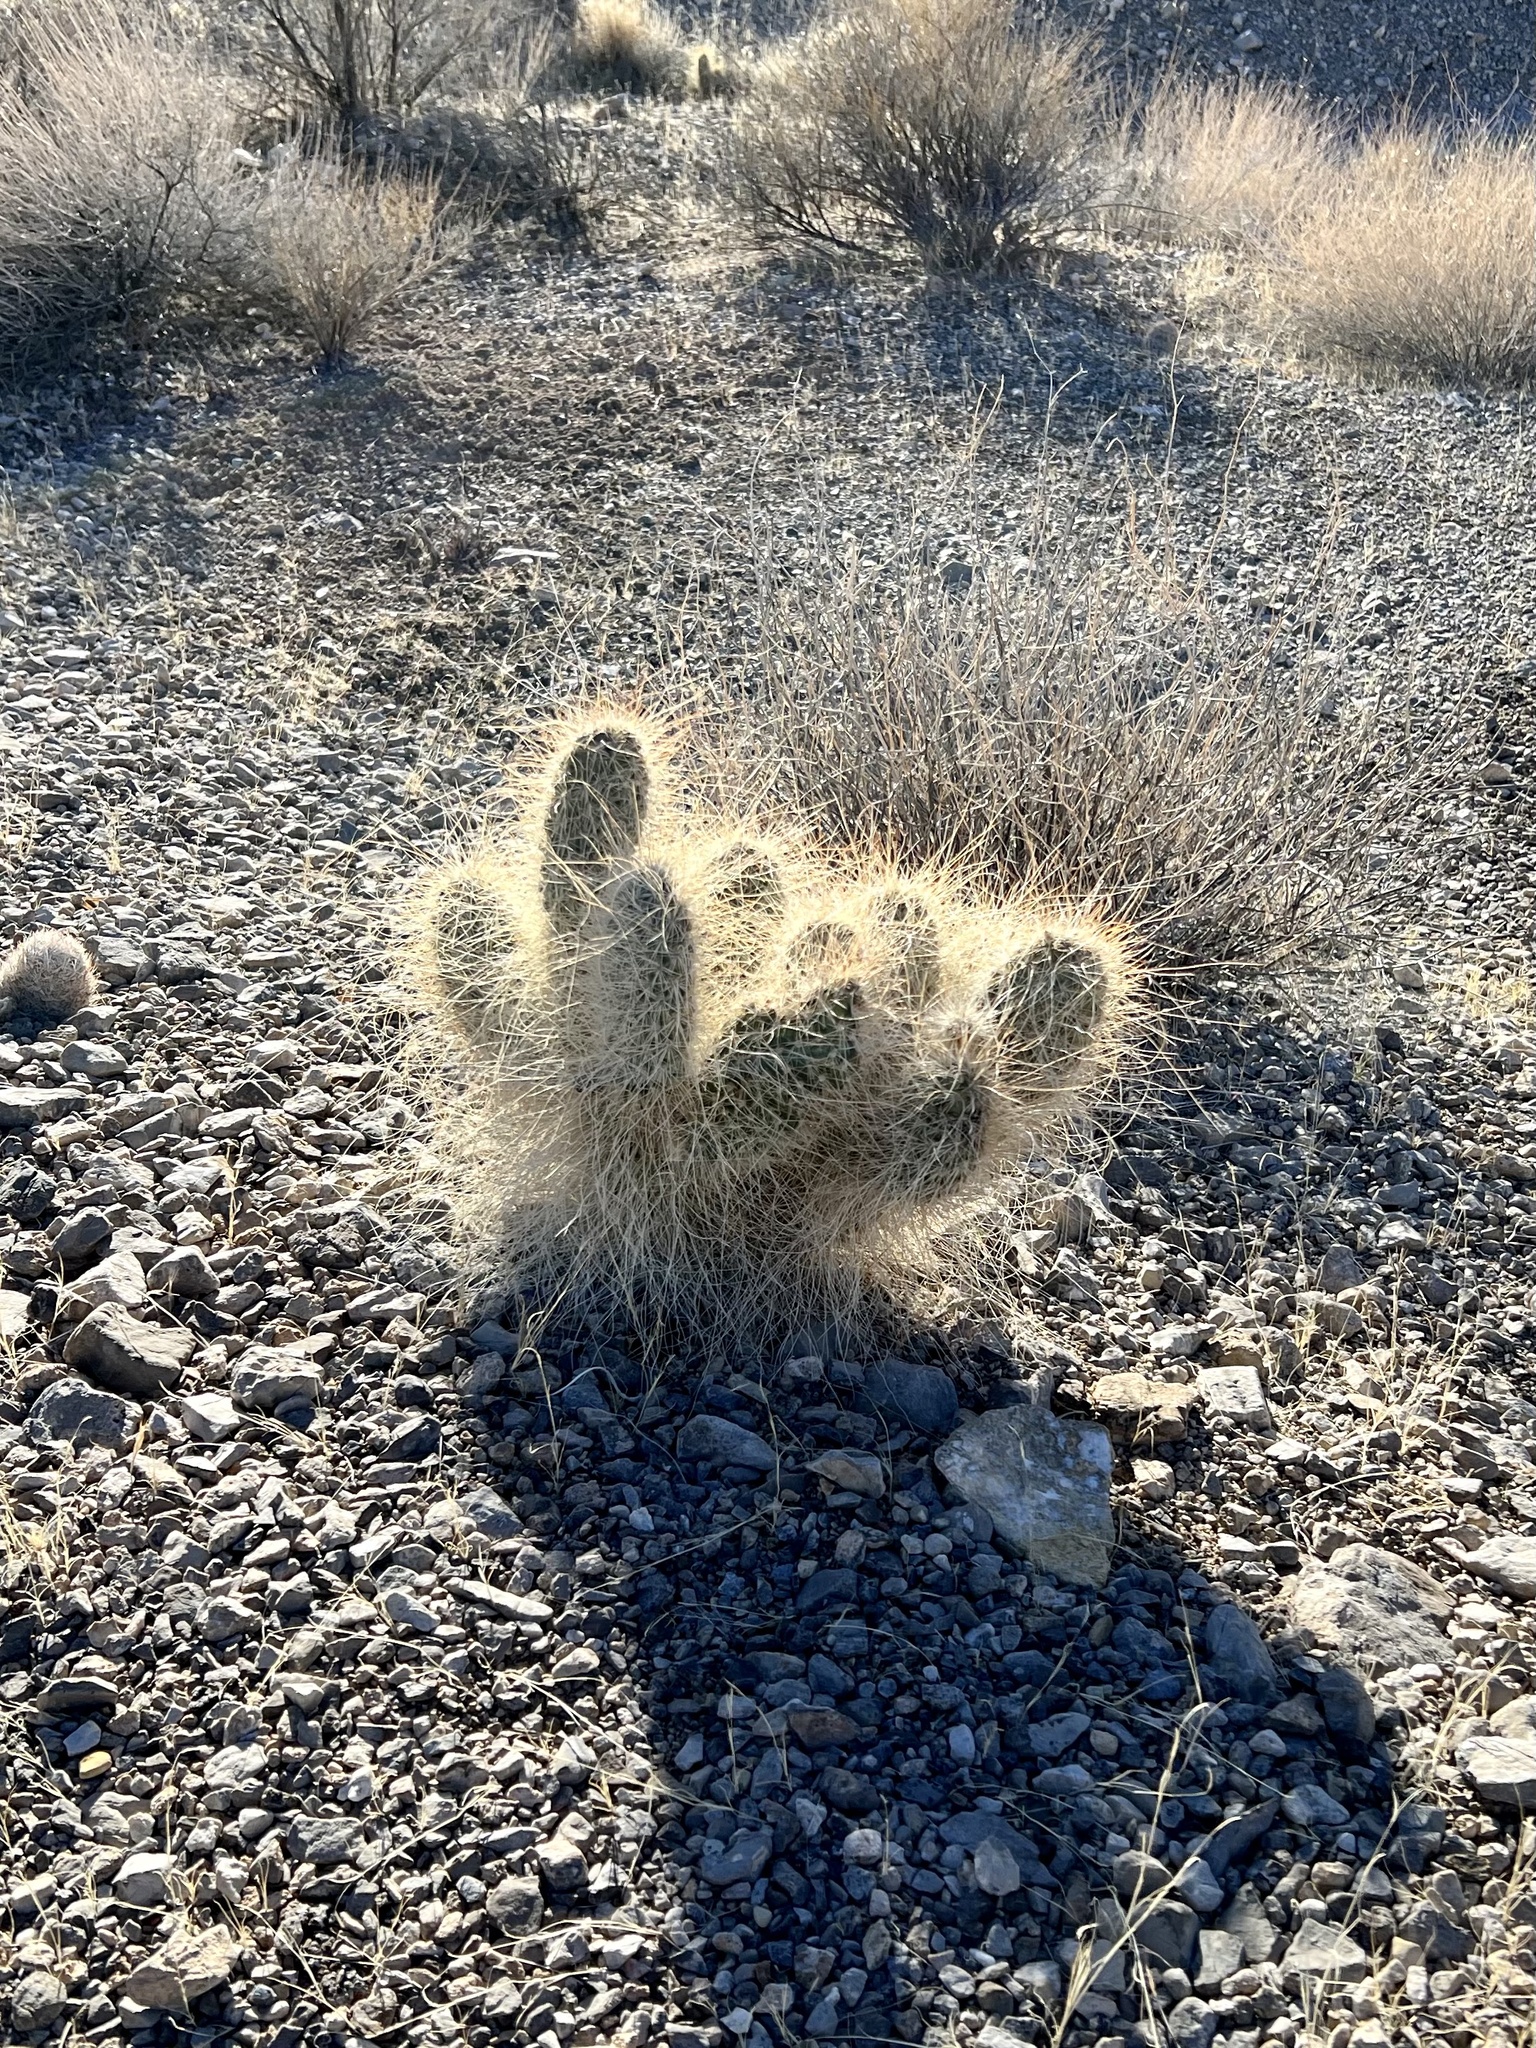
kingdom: Plantae
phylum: Tracheophyta
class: Magnoliopsida
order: Caryophyllales
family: Cactaceae
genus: Opuntia
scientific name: Opuntia polyacantha
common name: Plains prickly-pear
